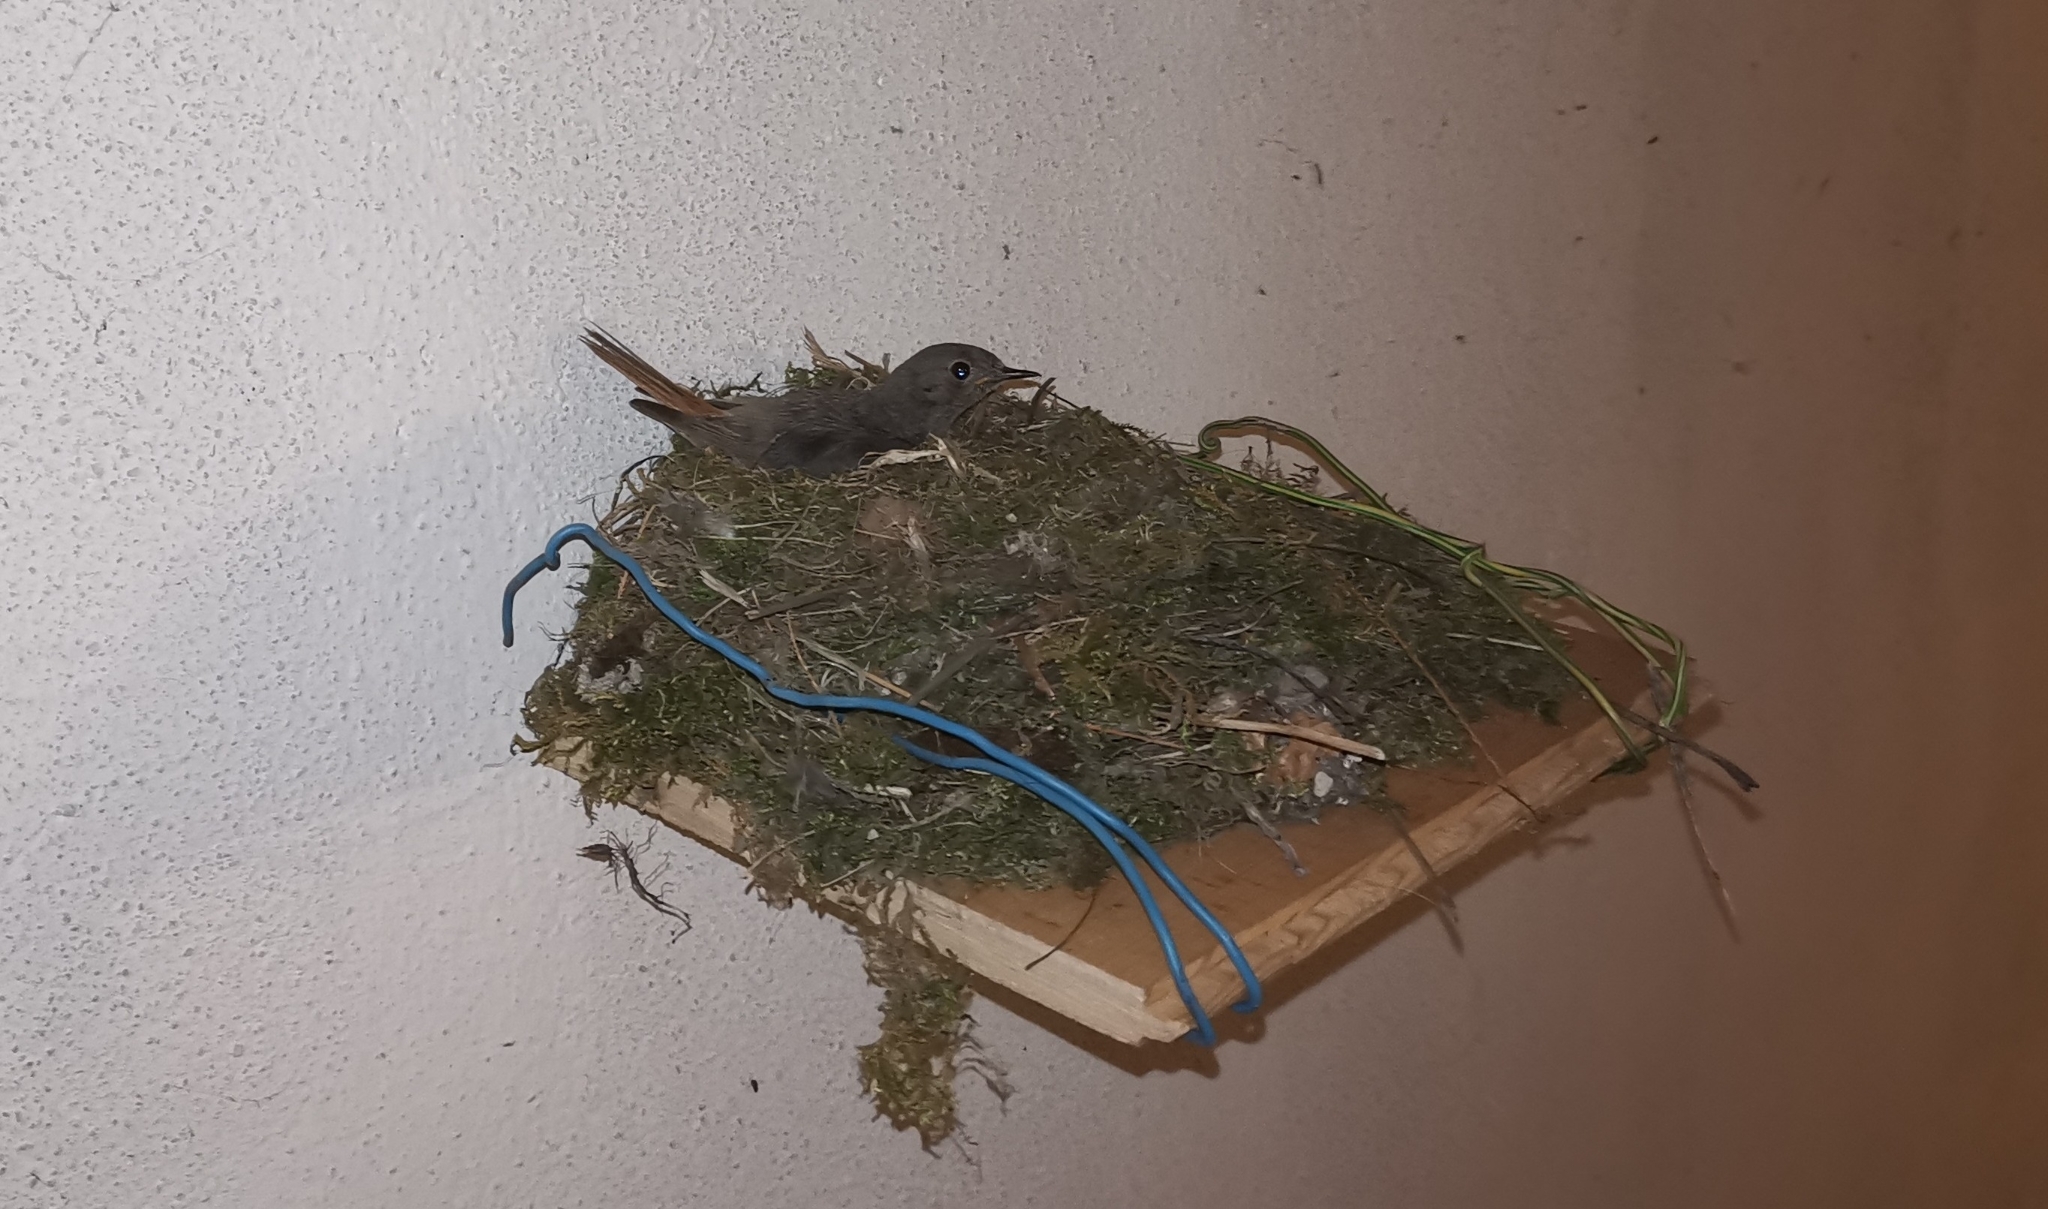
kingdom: Animalia
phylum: Chordata
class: Aves
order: Passeriformes
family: Muscicapidae
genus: Phoenicurus
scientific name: Phoenicurus ochruros
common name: Black redstart
